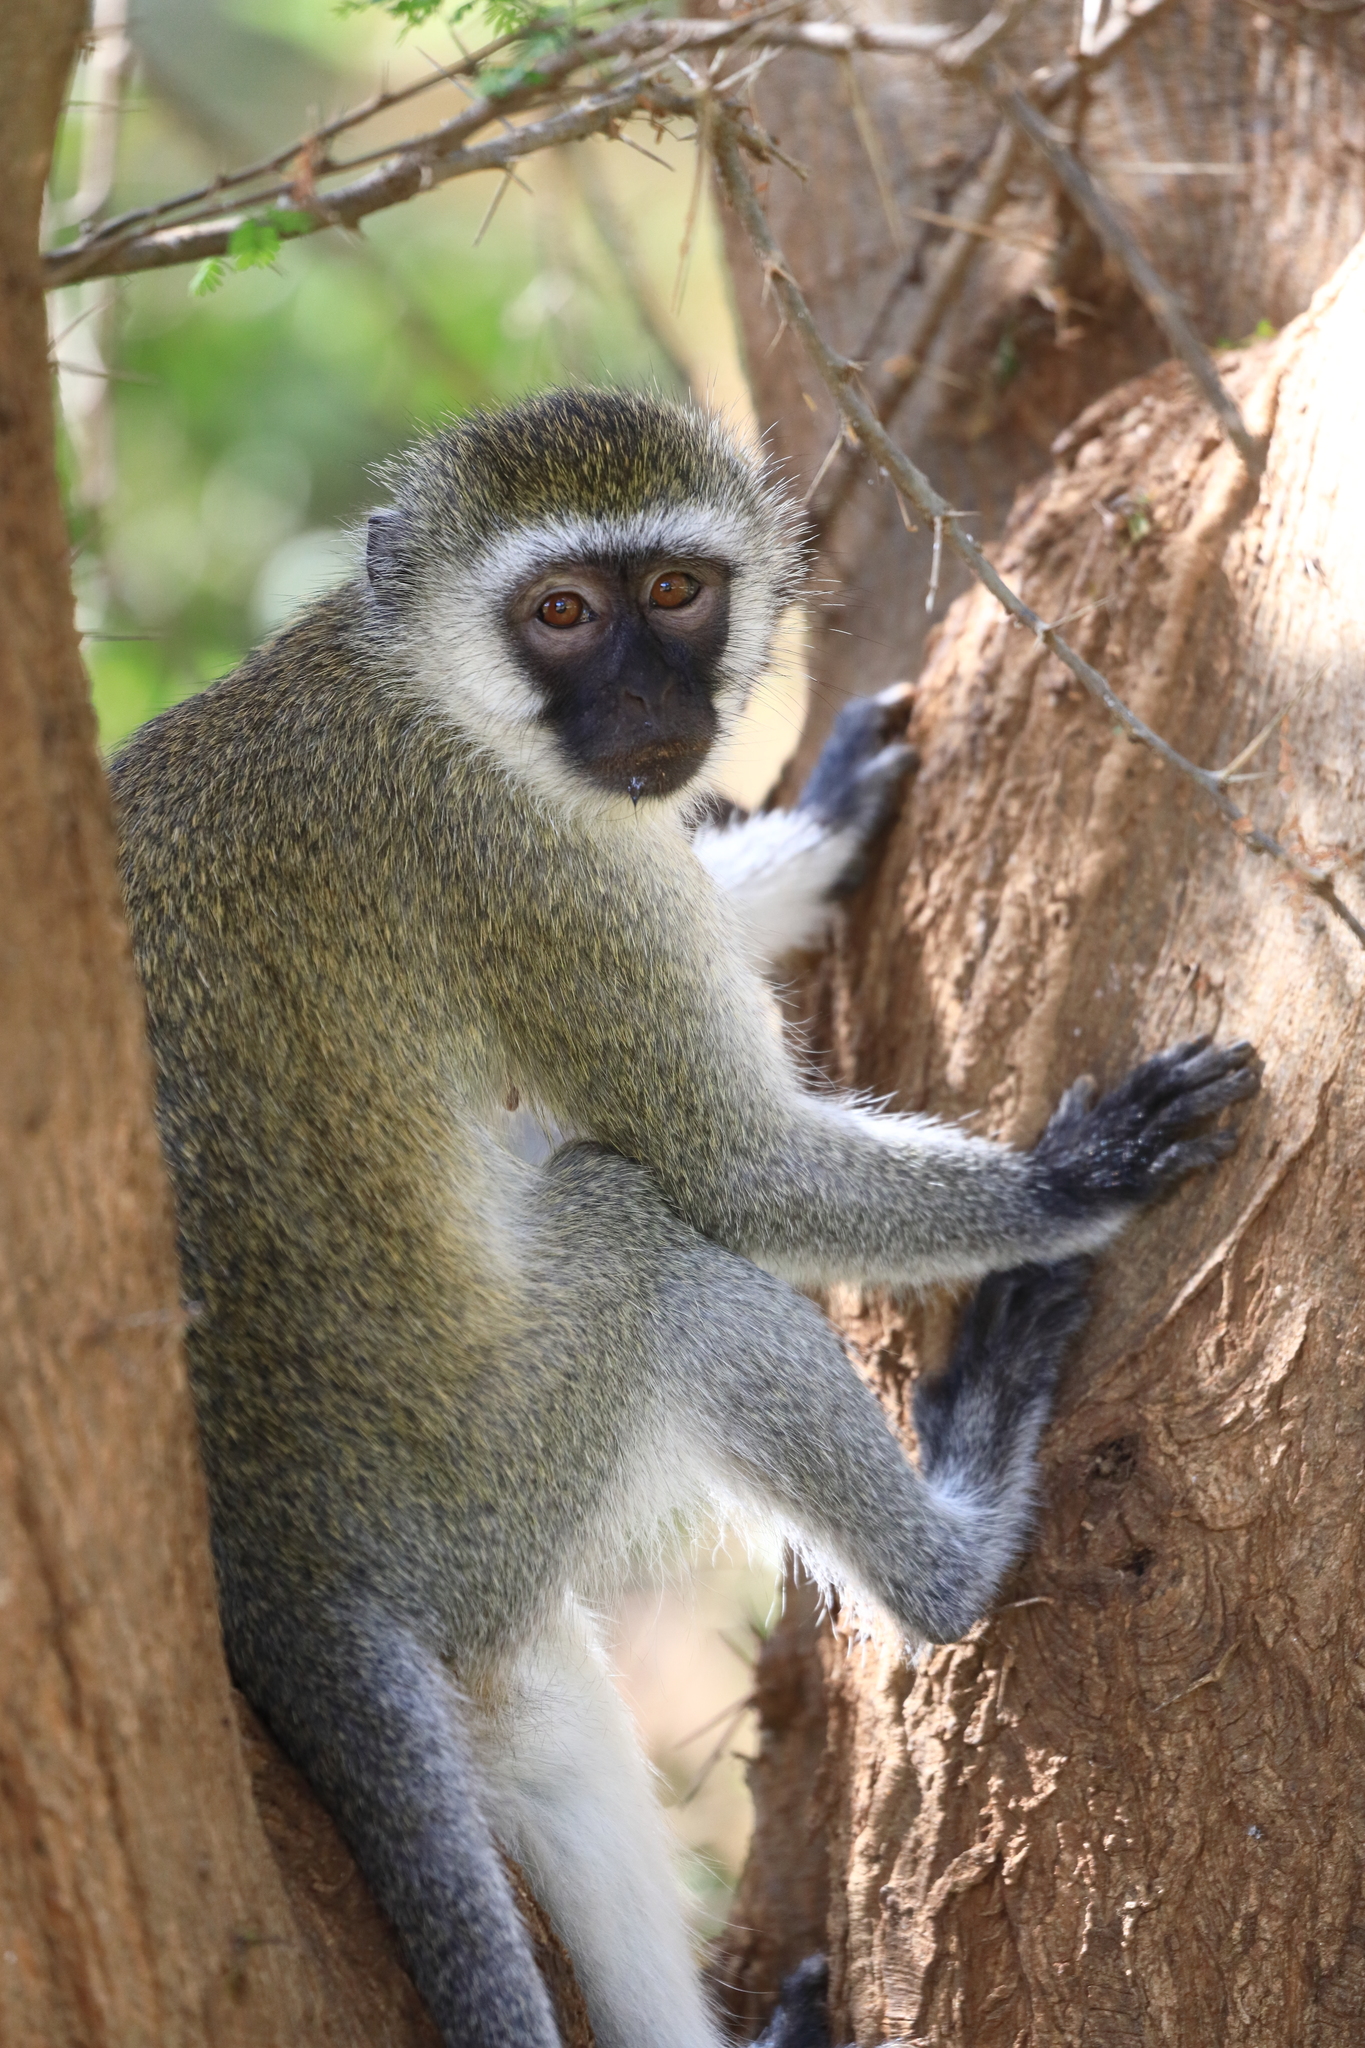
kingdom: Animalia
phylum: Chordata
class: Mammalia
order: Primates
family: Cercopithecidae
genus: Chlorocebus
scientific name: Chlorocebus pygerythrus
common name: Vervet monkey
